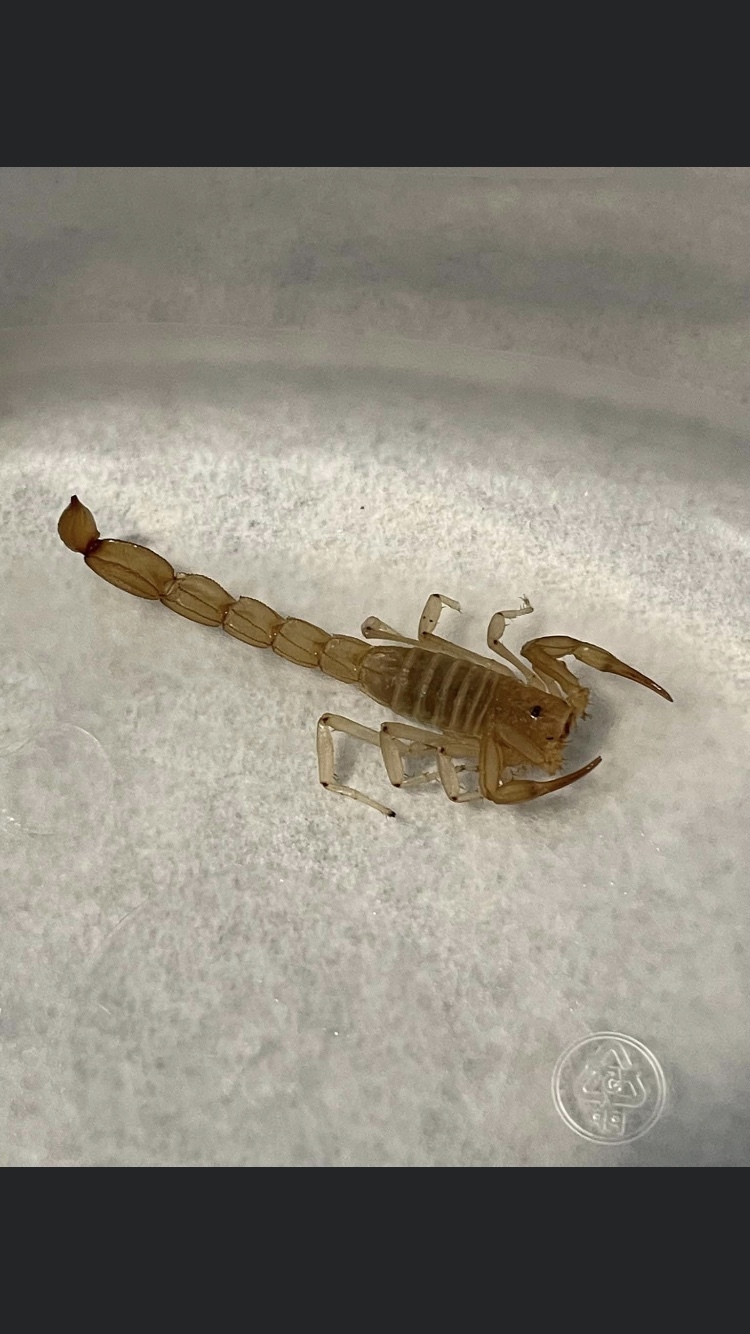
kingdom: Animalia
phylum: Arthropoda
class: Arachnida
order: Scorpiones
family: Vaejovidae
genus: Paravaejovis
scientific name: Paravaejovis confusus
